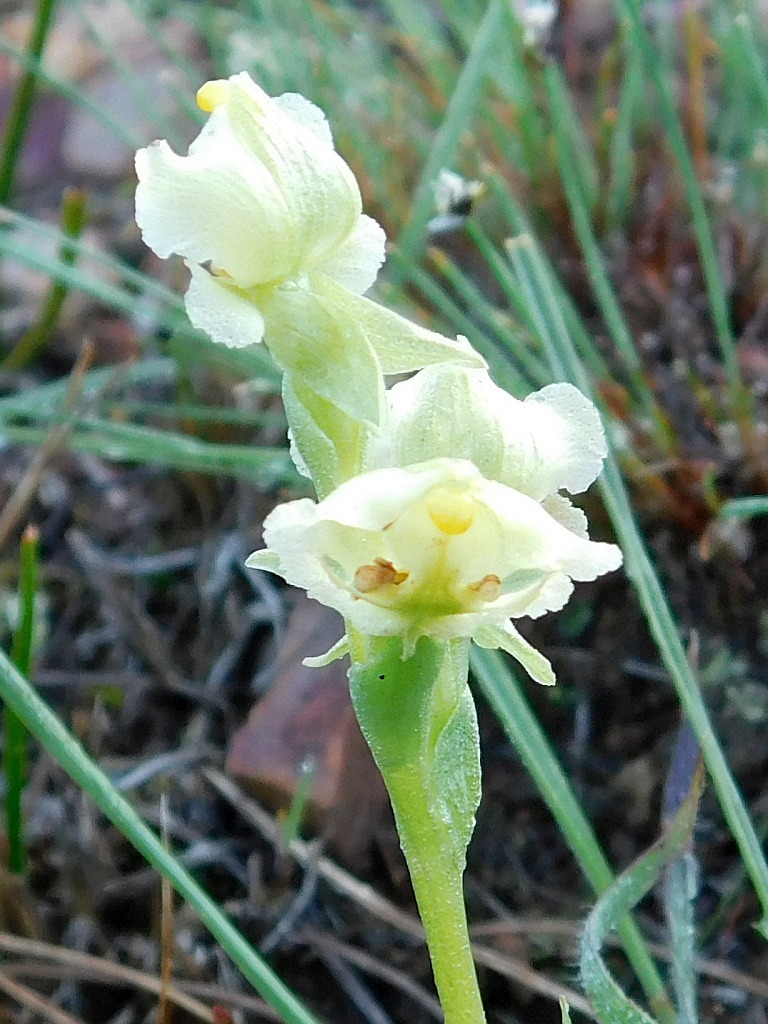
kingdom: Plantae
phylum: Tracheophyta
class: Liliopsida
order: Asparagales
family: Orchidaceae
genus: Pterygodium
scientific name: Pterygodium alatum
